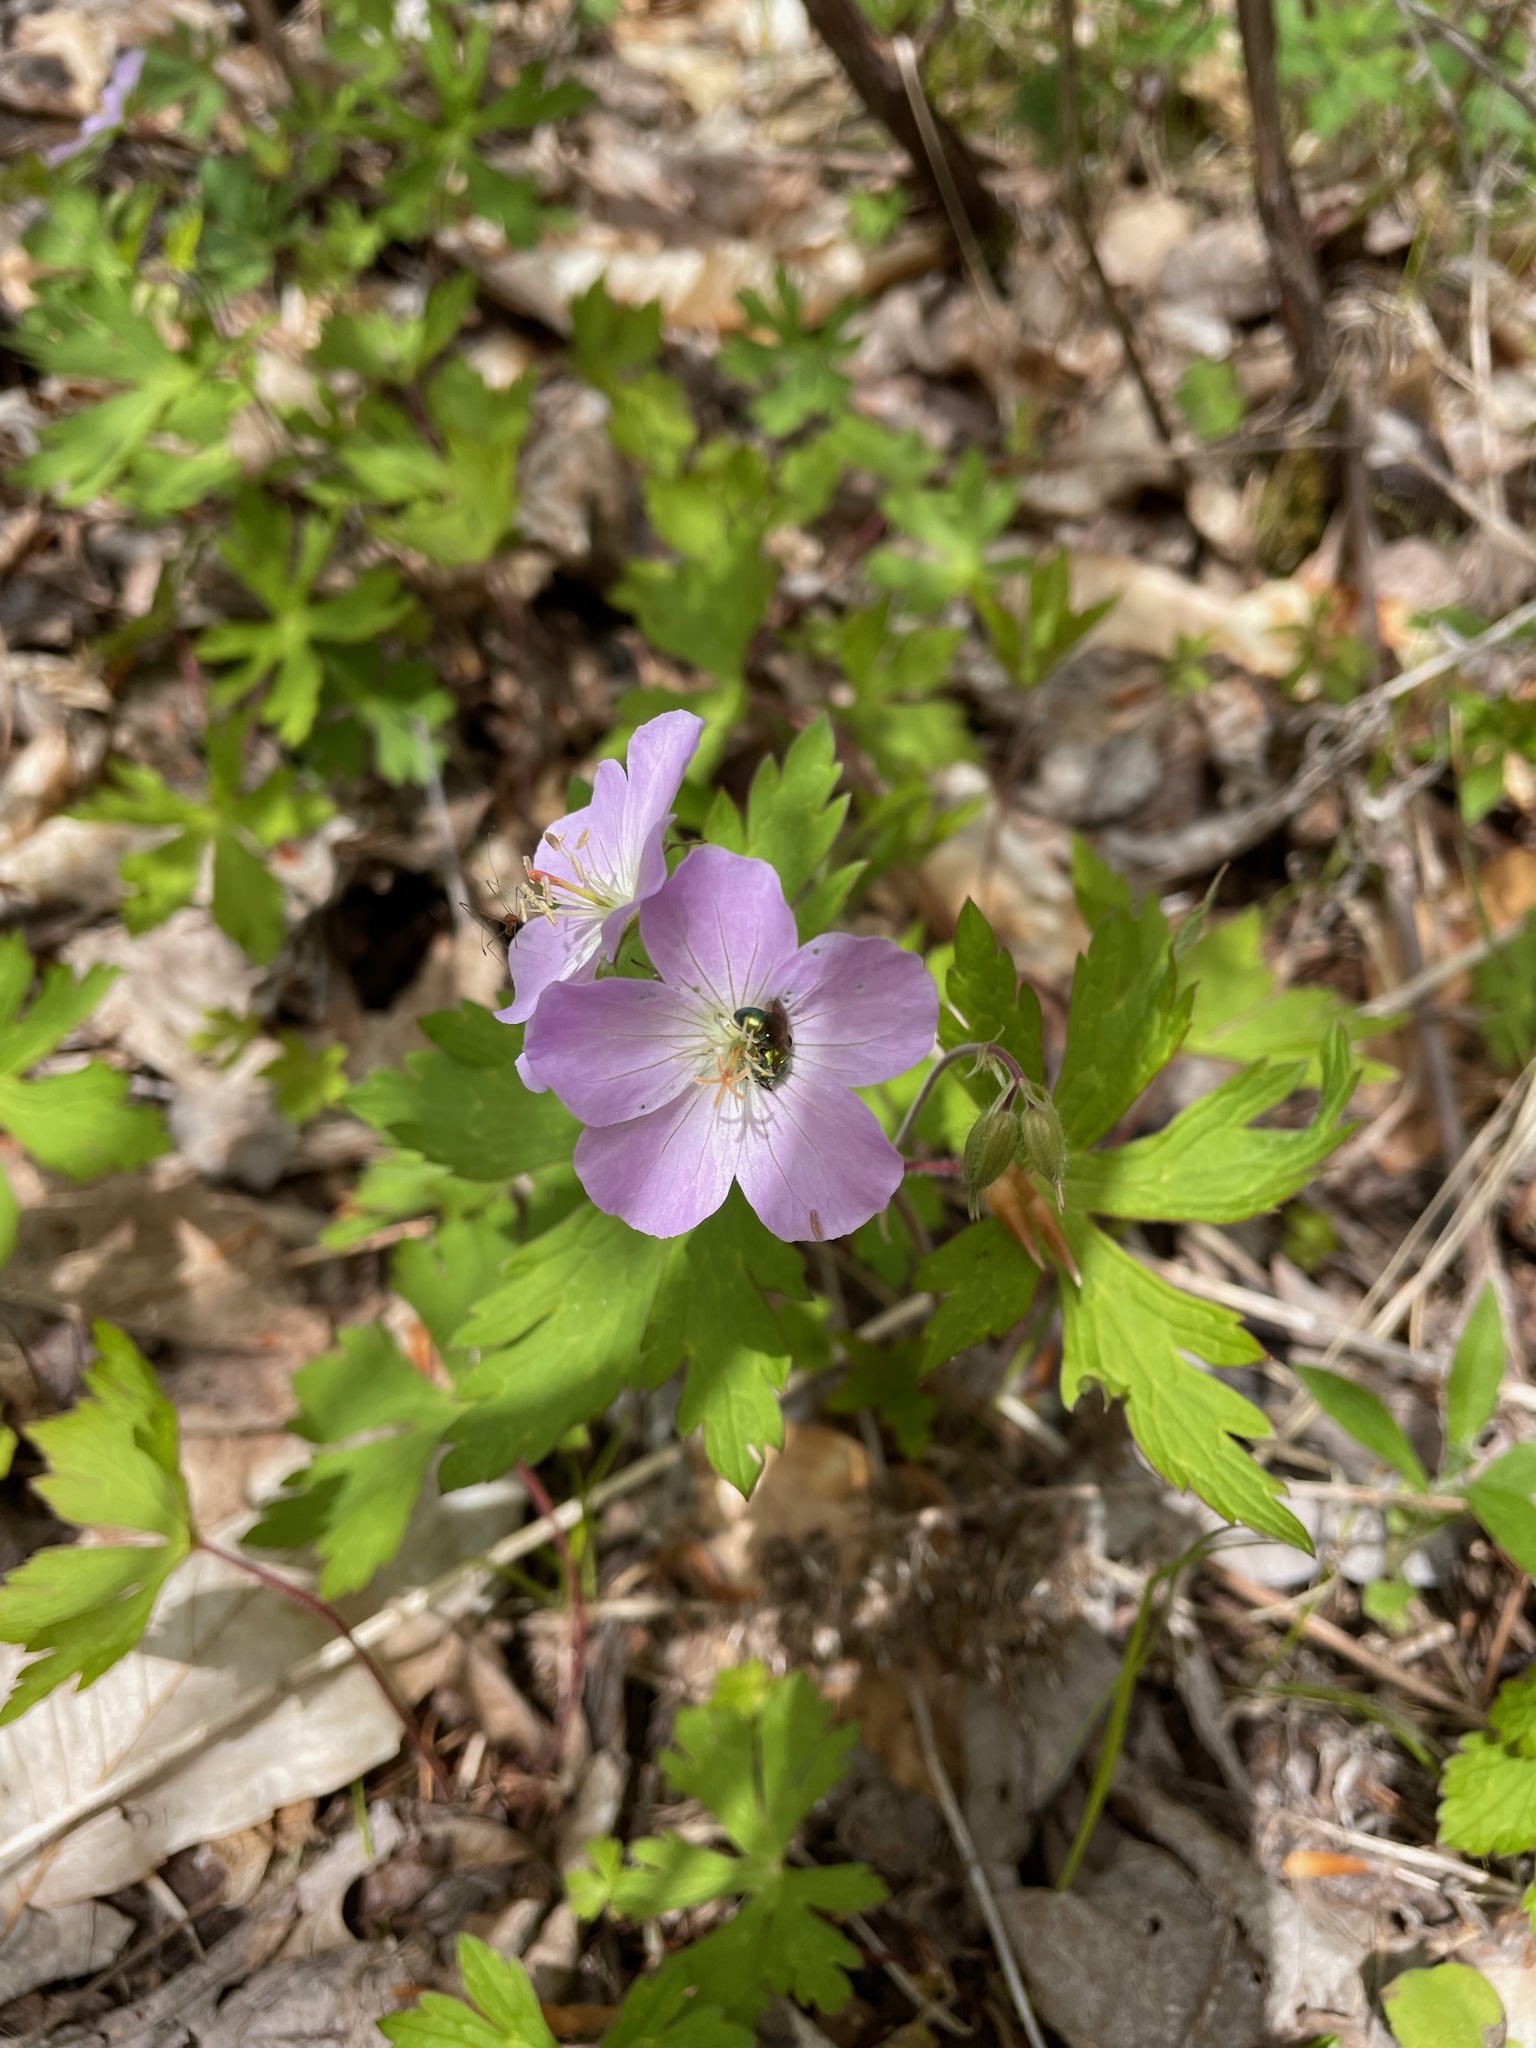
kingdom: Plantae
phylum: Tracheophyta
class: Magnoliopsida
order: Geraniales
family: Geraniaceae
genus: Geranium
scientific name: Geranium maculatum
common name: Spotted geranium
